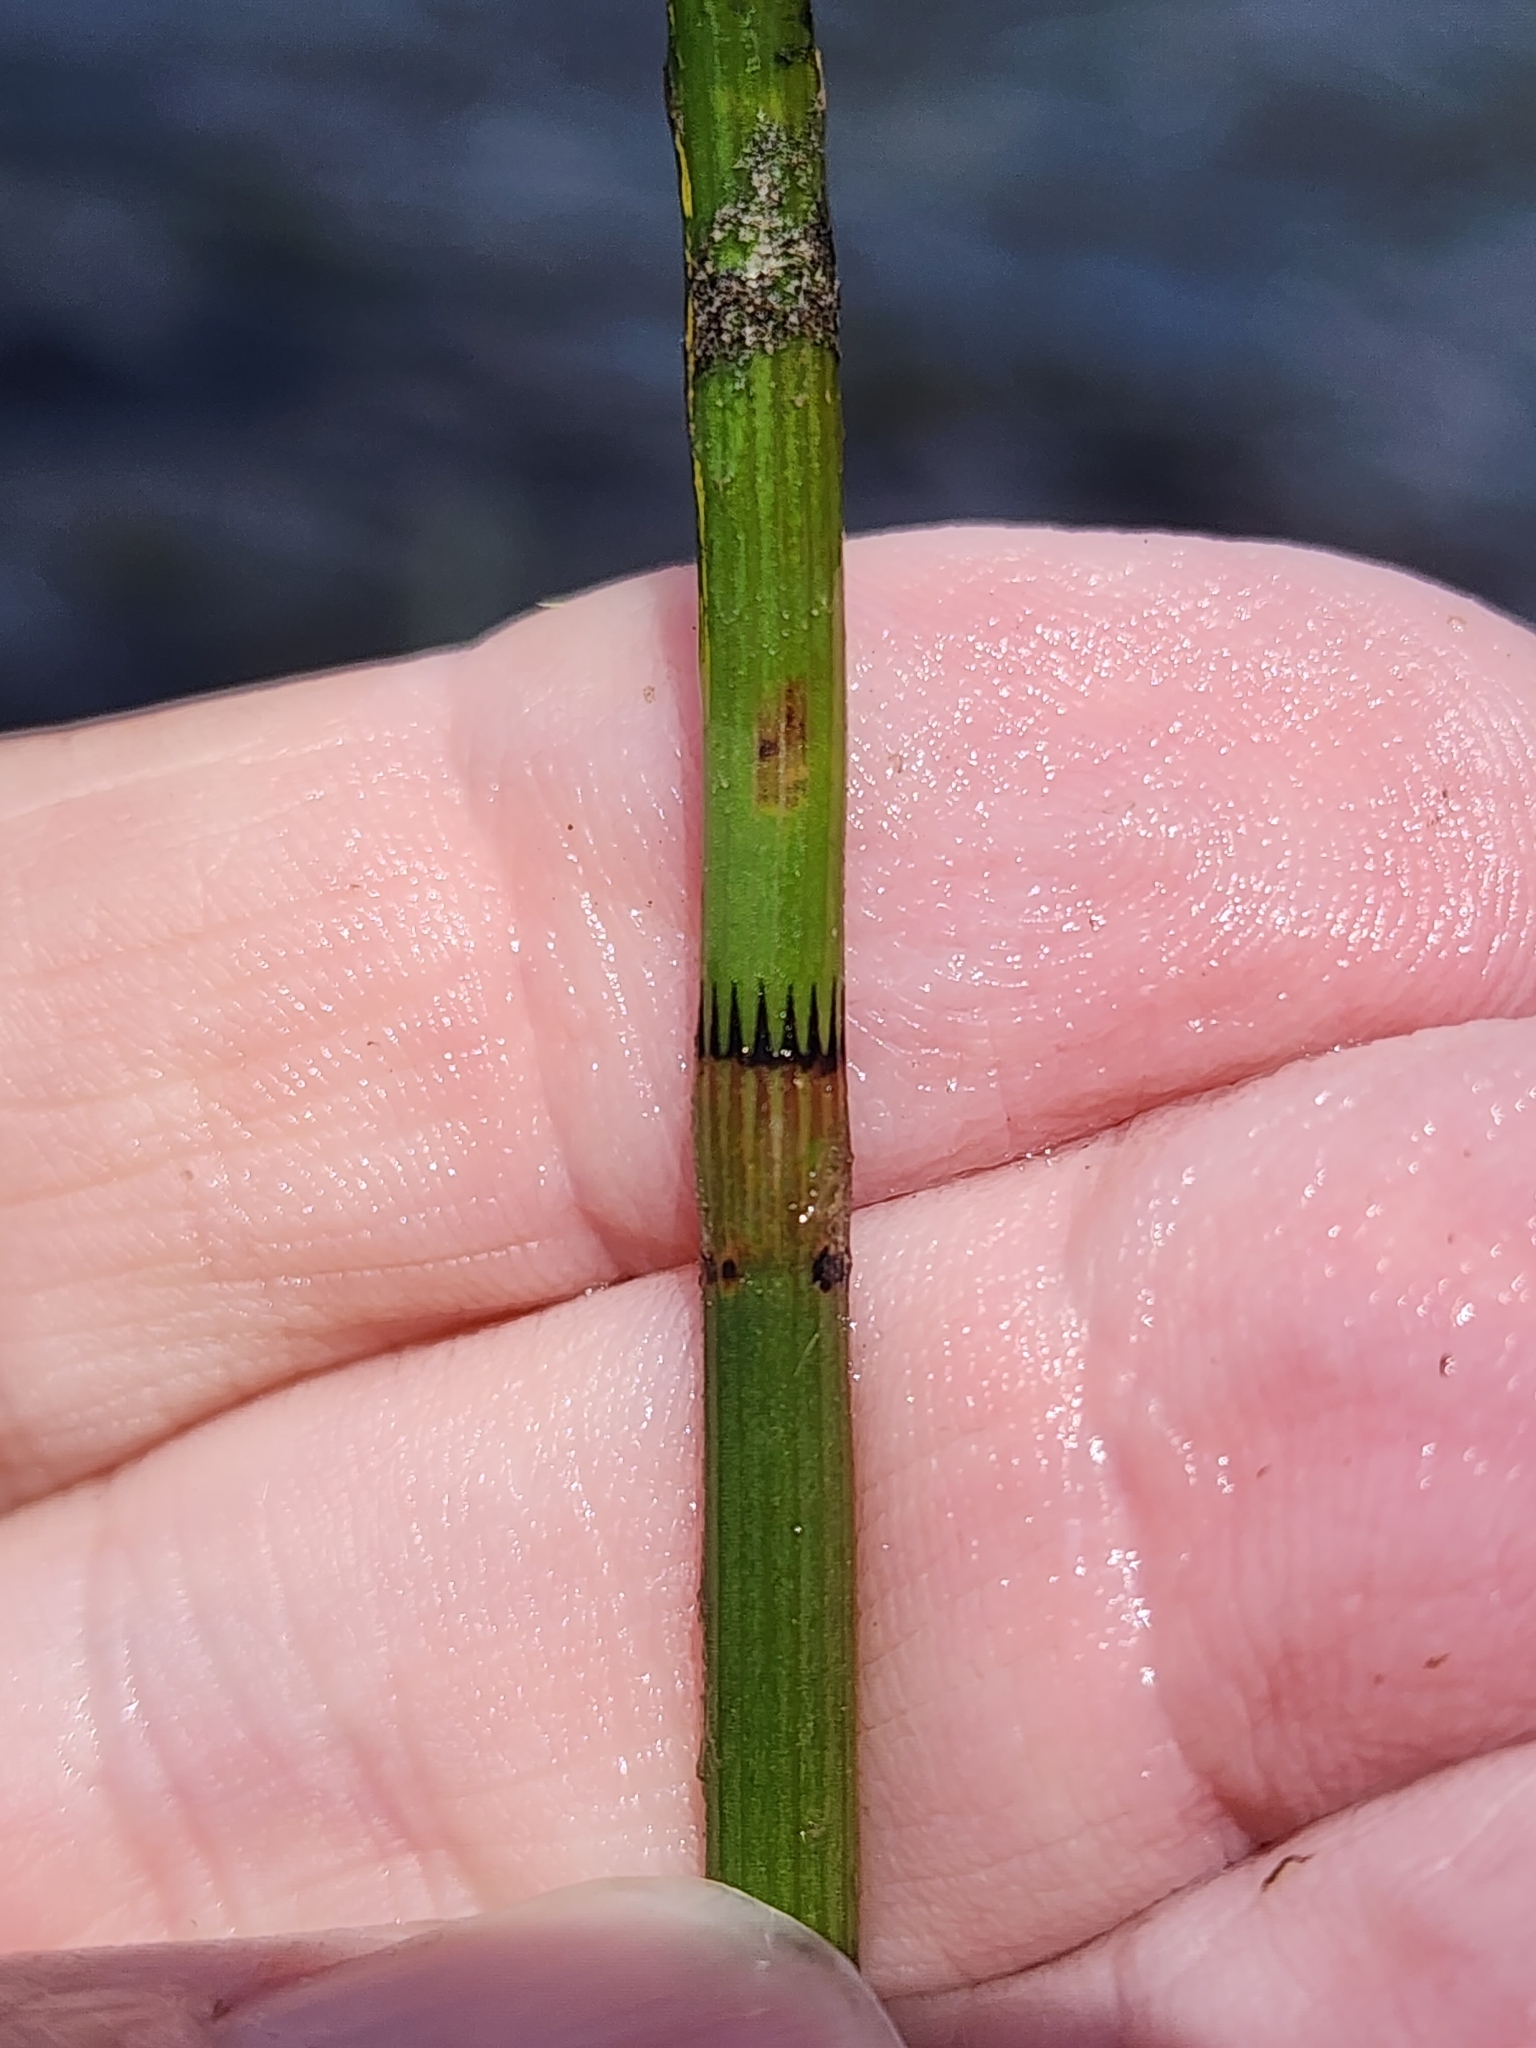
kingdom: Plantae
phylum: Tracheophyta
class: Polypodiopsida
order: Equisetales
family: Equisetaceae
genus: Equisetum
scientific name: Equisetum fluviatile
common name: Water horsetail
